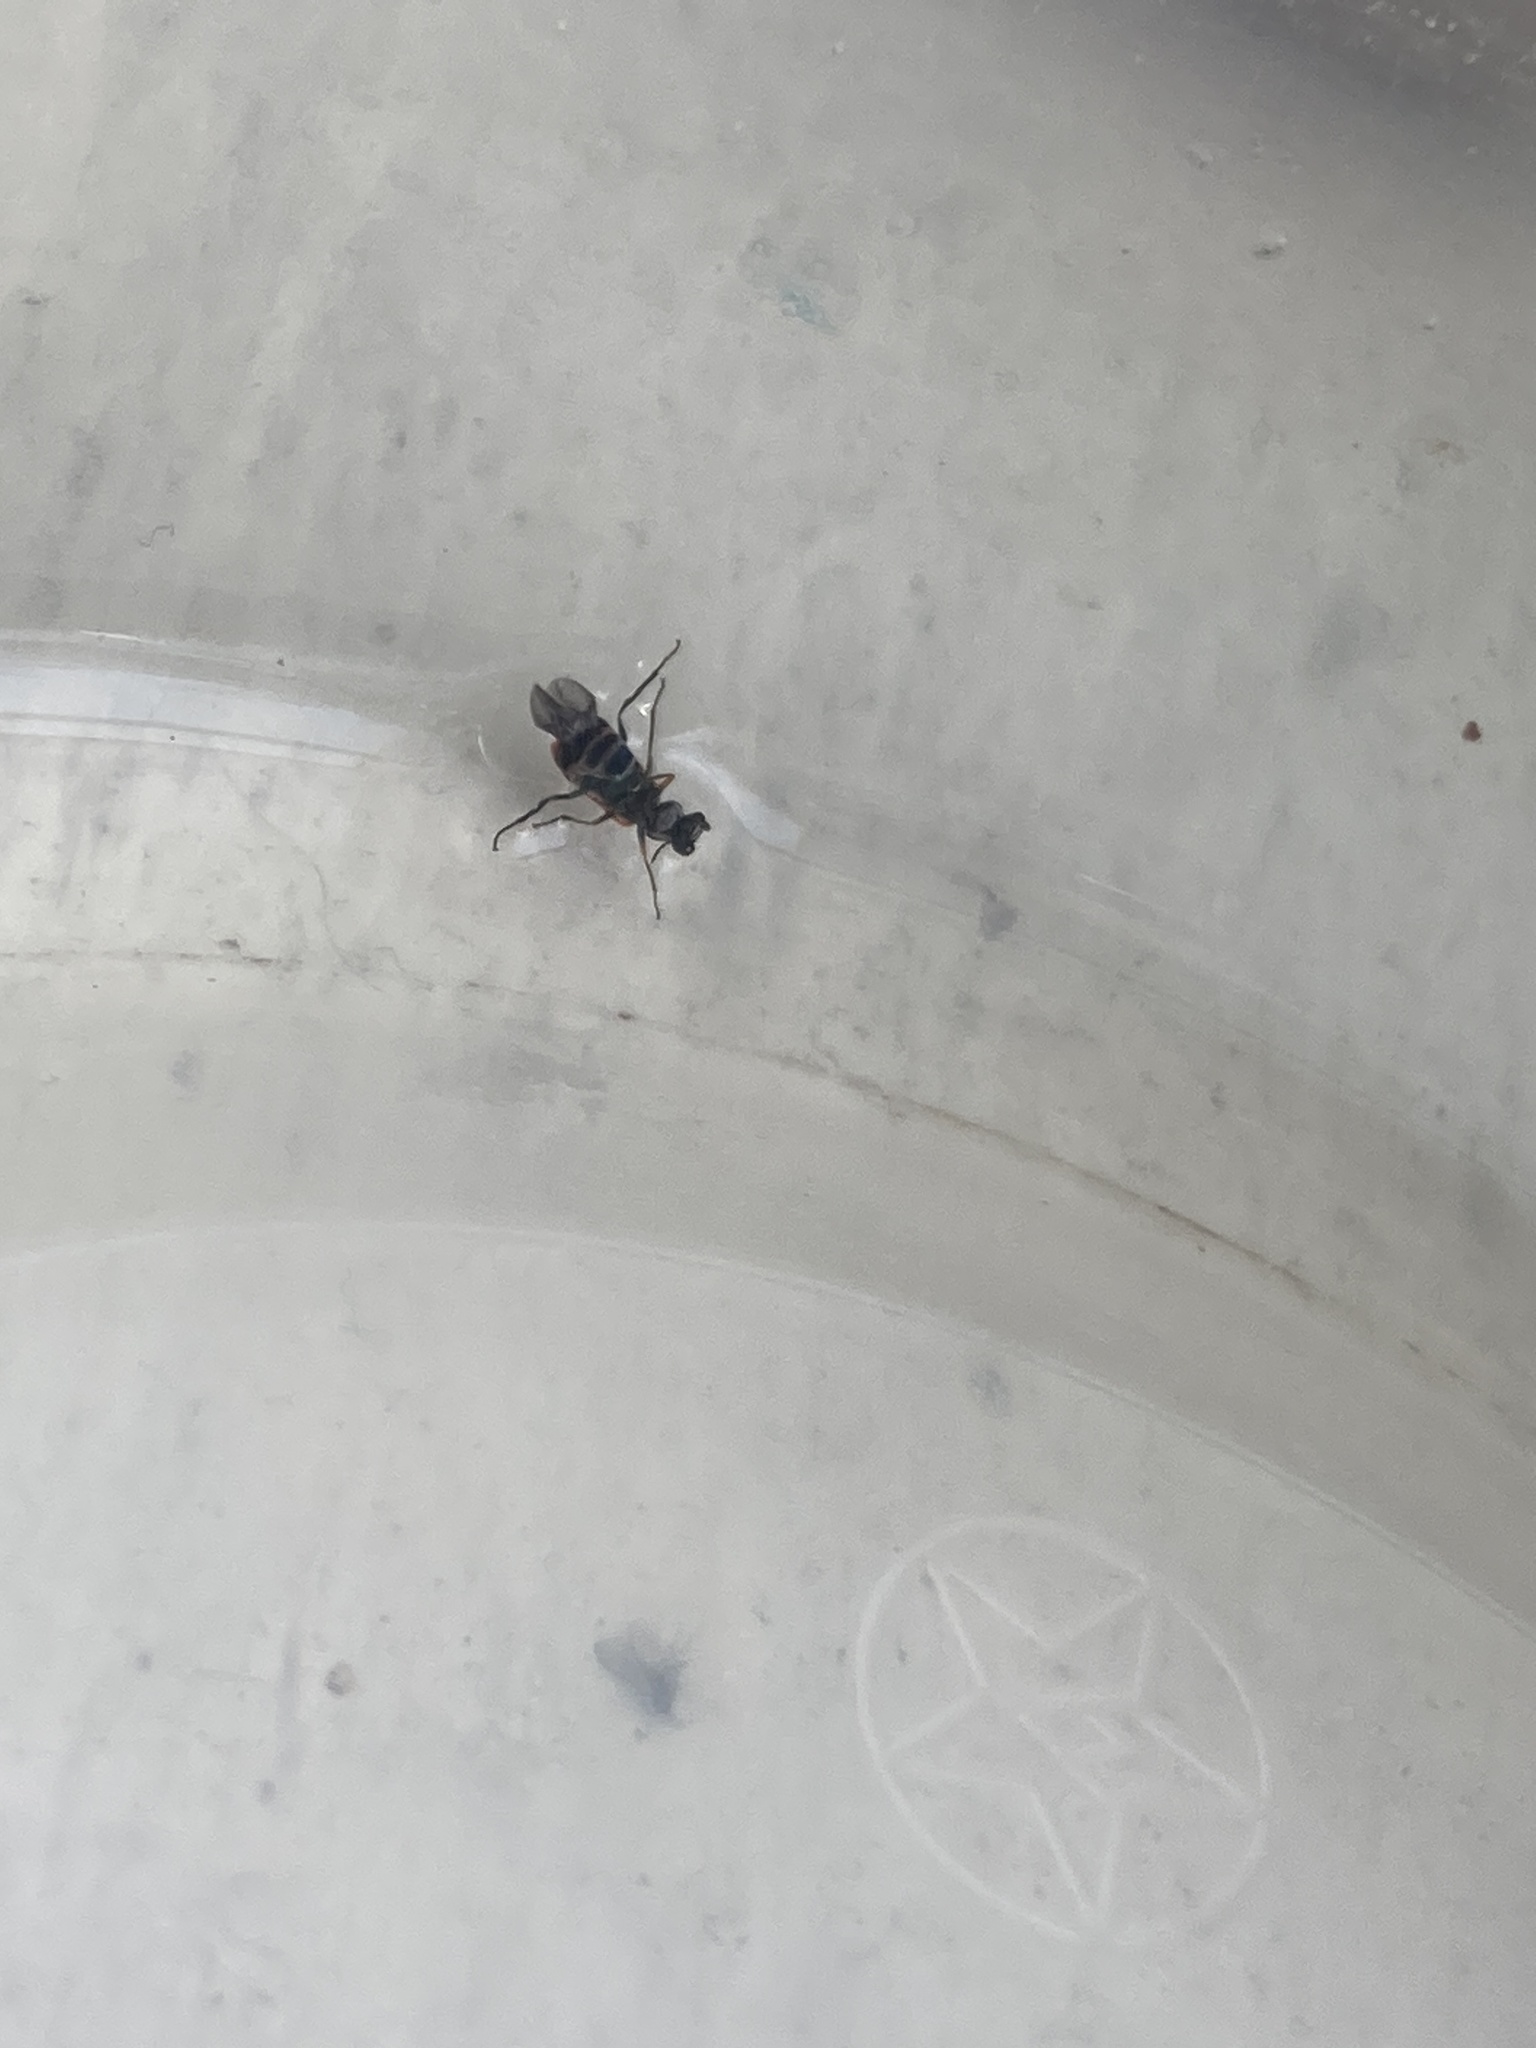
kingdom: Animalia
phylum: Arthropoda
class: Insecta
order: Coleoptera
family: Melyridae
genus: Anthocomus
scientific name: Anthocomus equestris
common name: Black-banded soft-winged flower beetle
